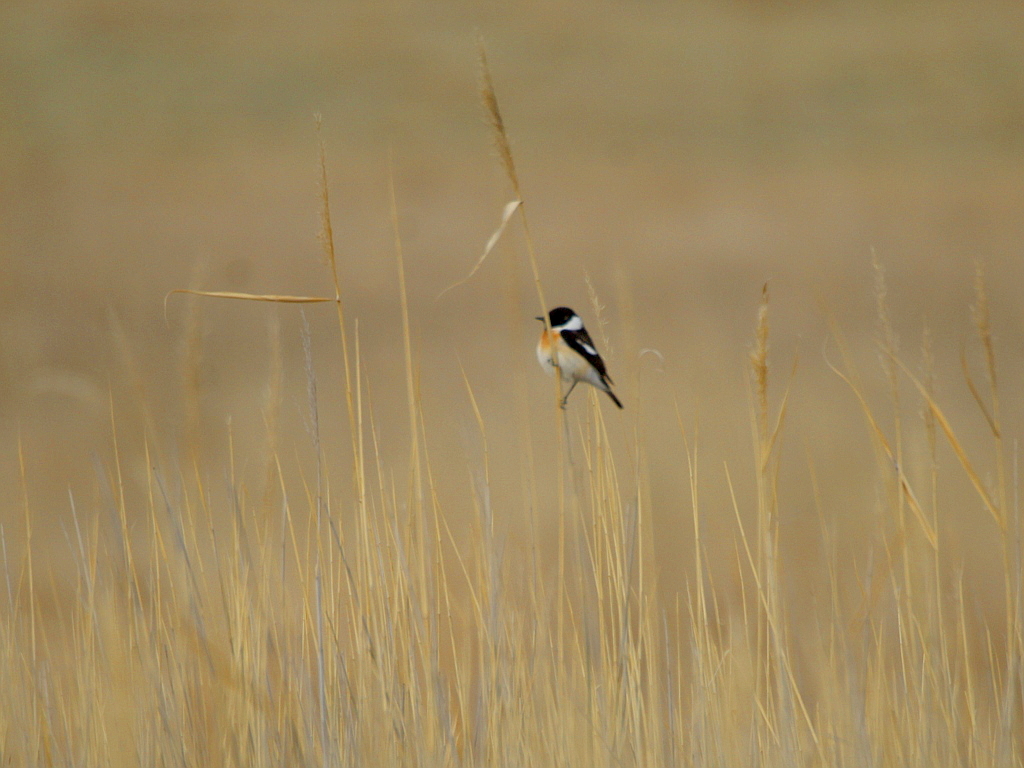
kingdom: Animalia
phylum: Chordata
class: Aves
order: Passeriformes
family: Muscicapidae
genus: Saxicola
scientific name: Saxicola maurus
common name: Siberian stonechat
